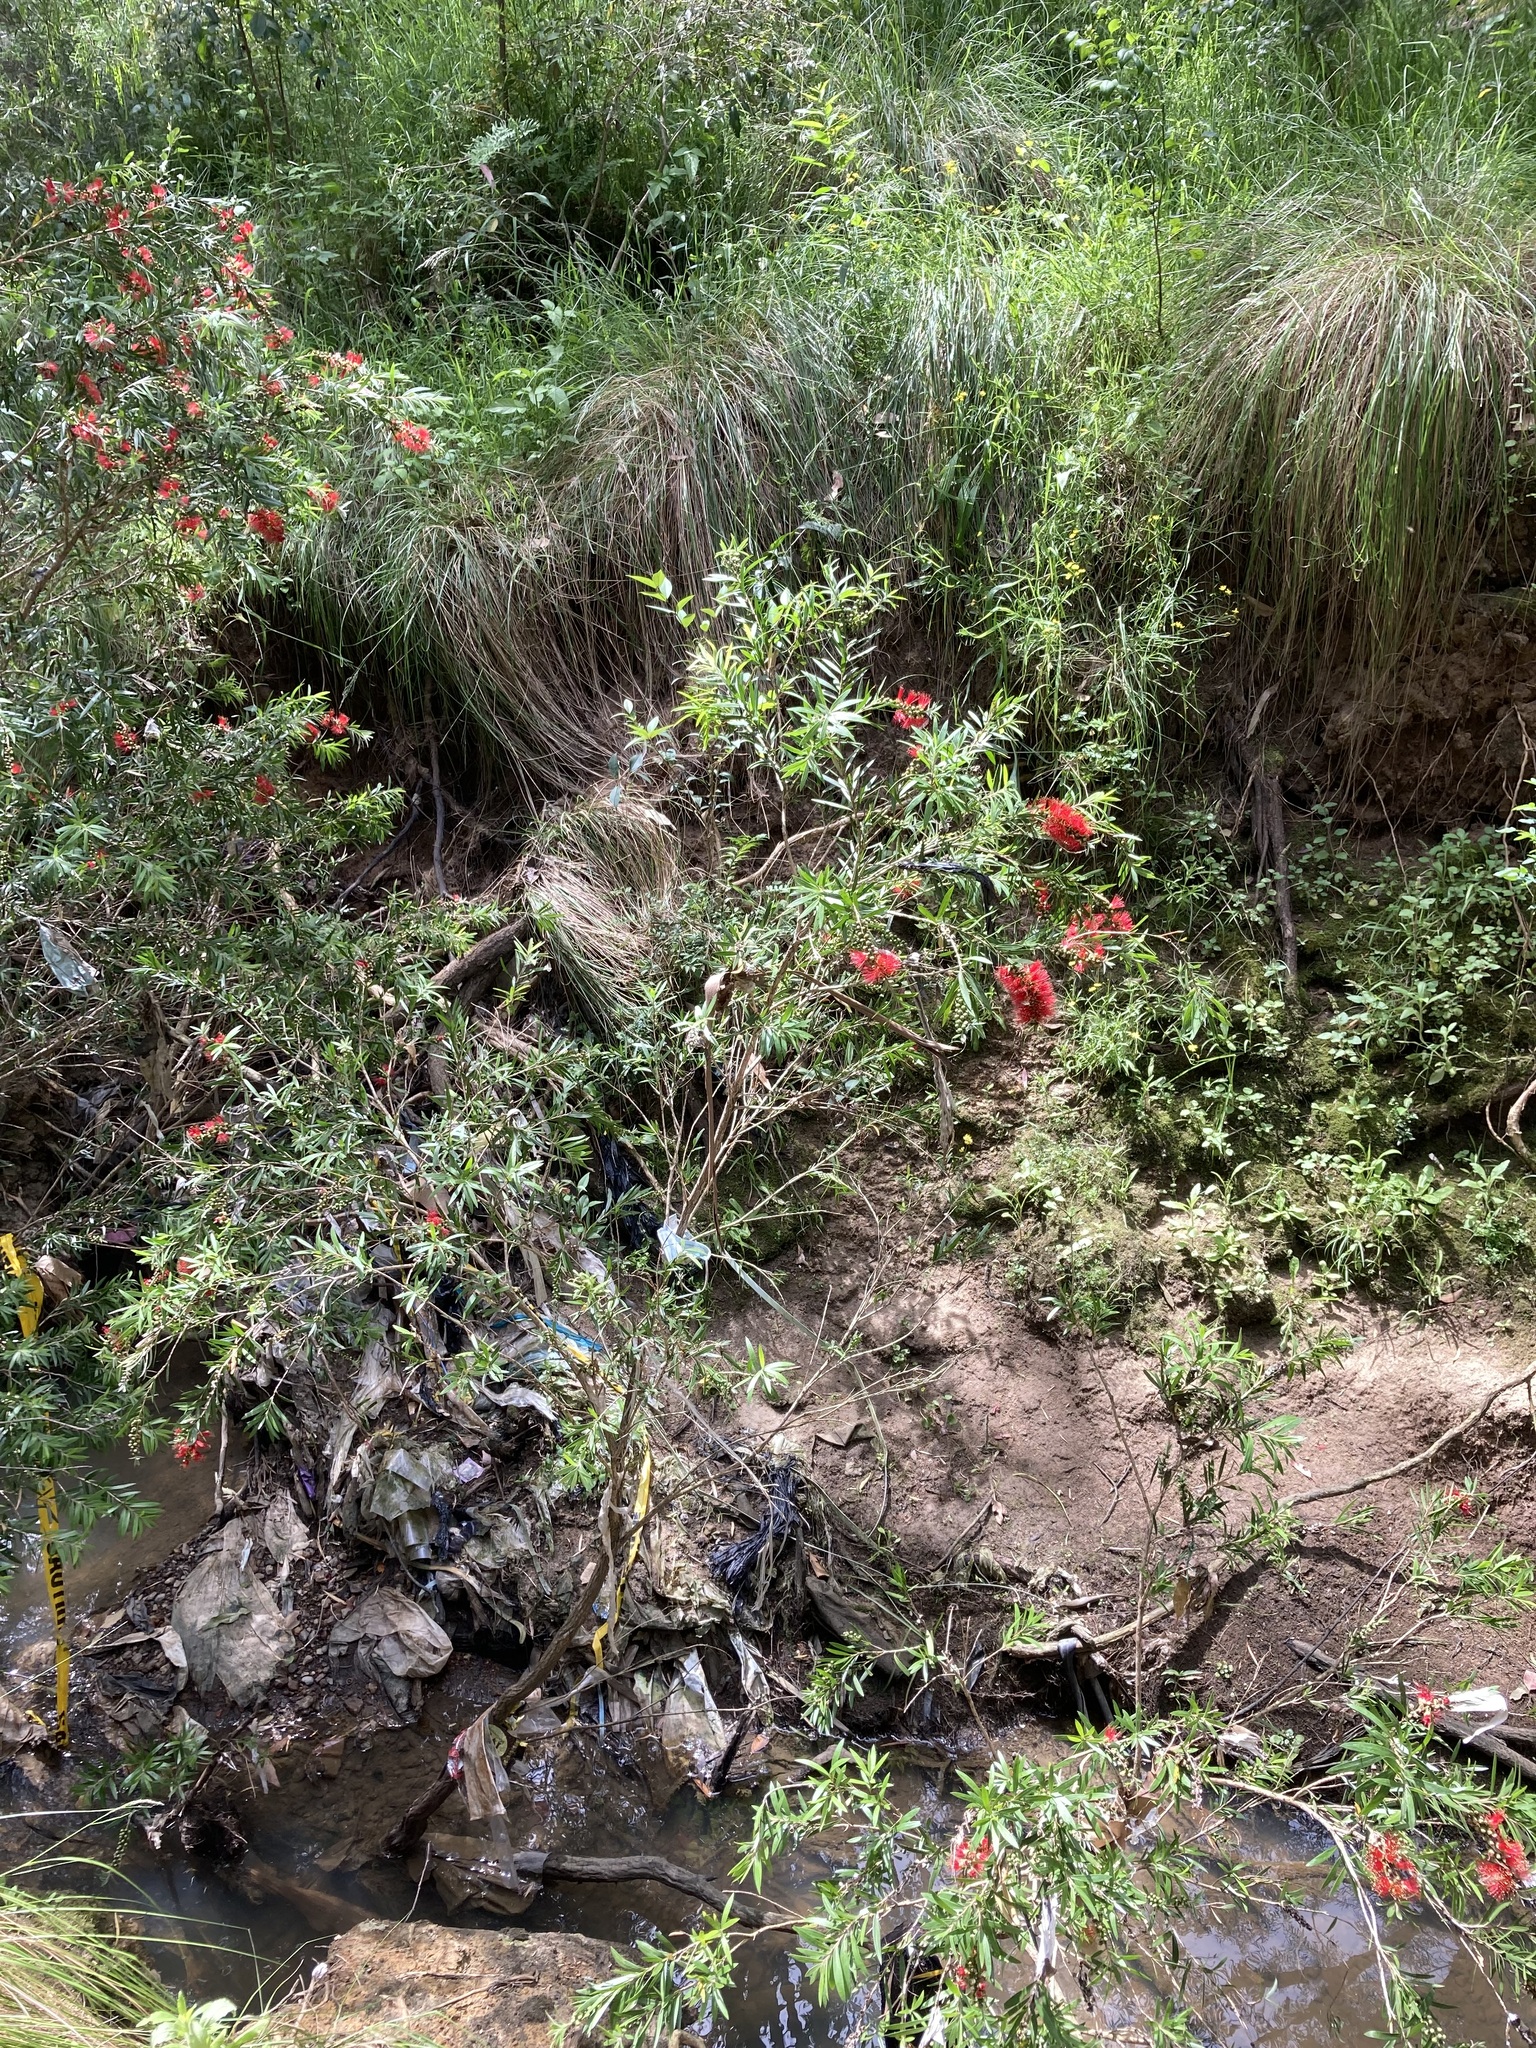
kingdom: Plantae
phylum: Tracheophyta
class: Magnoliopsida
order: Myrtales
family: Myrtaceae
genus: Callistemon
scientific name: Callistemon viminalis
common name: Drooping bottlebrush
